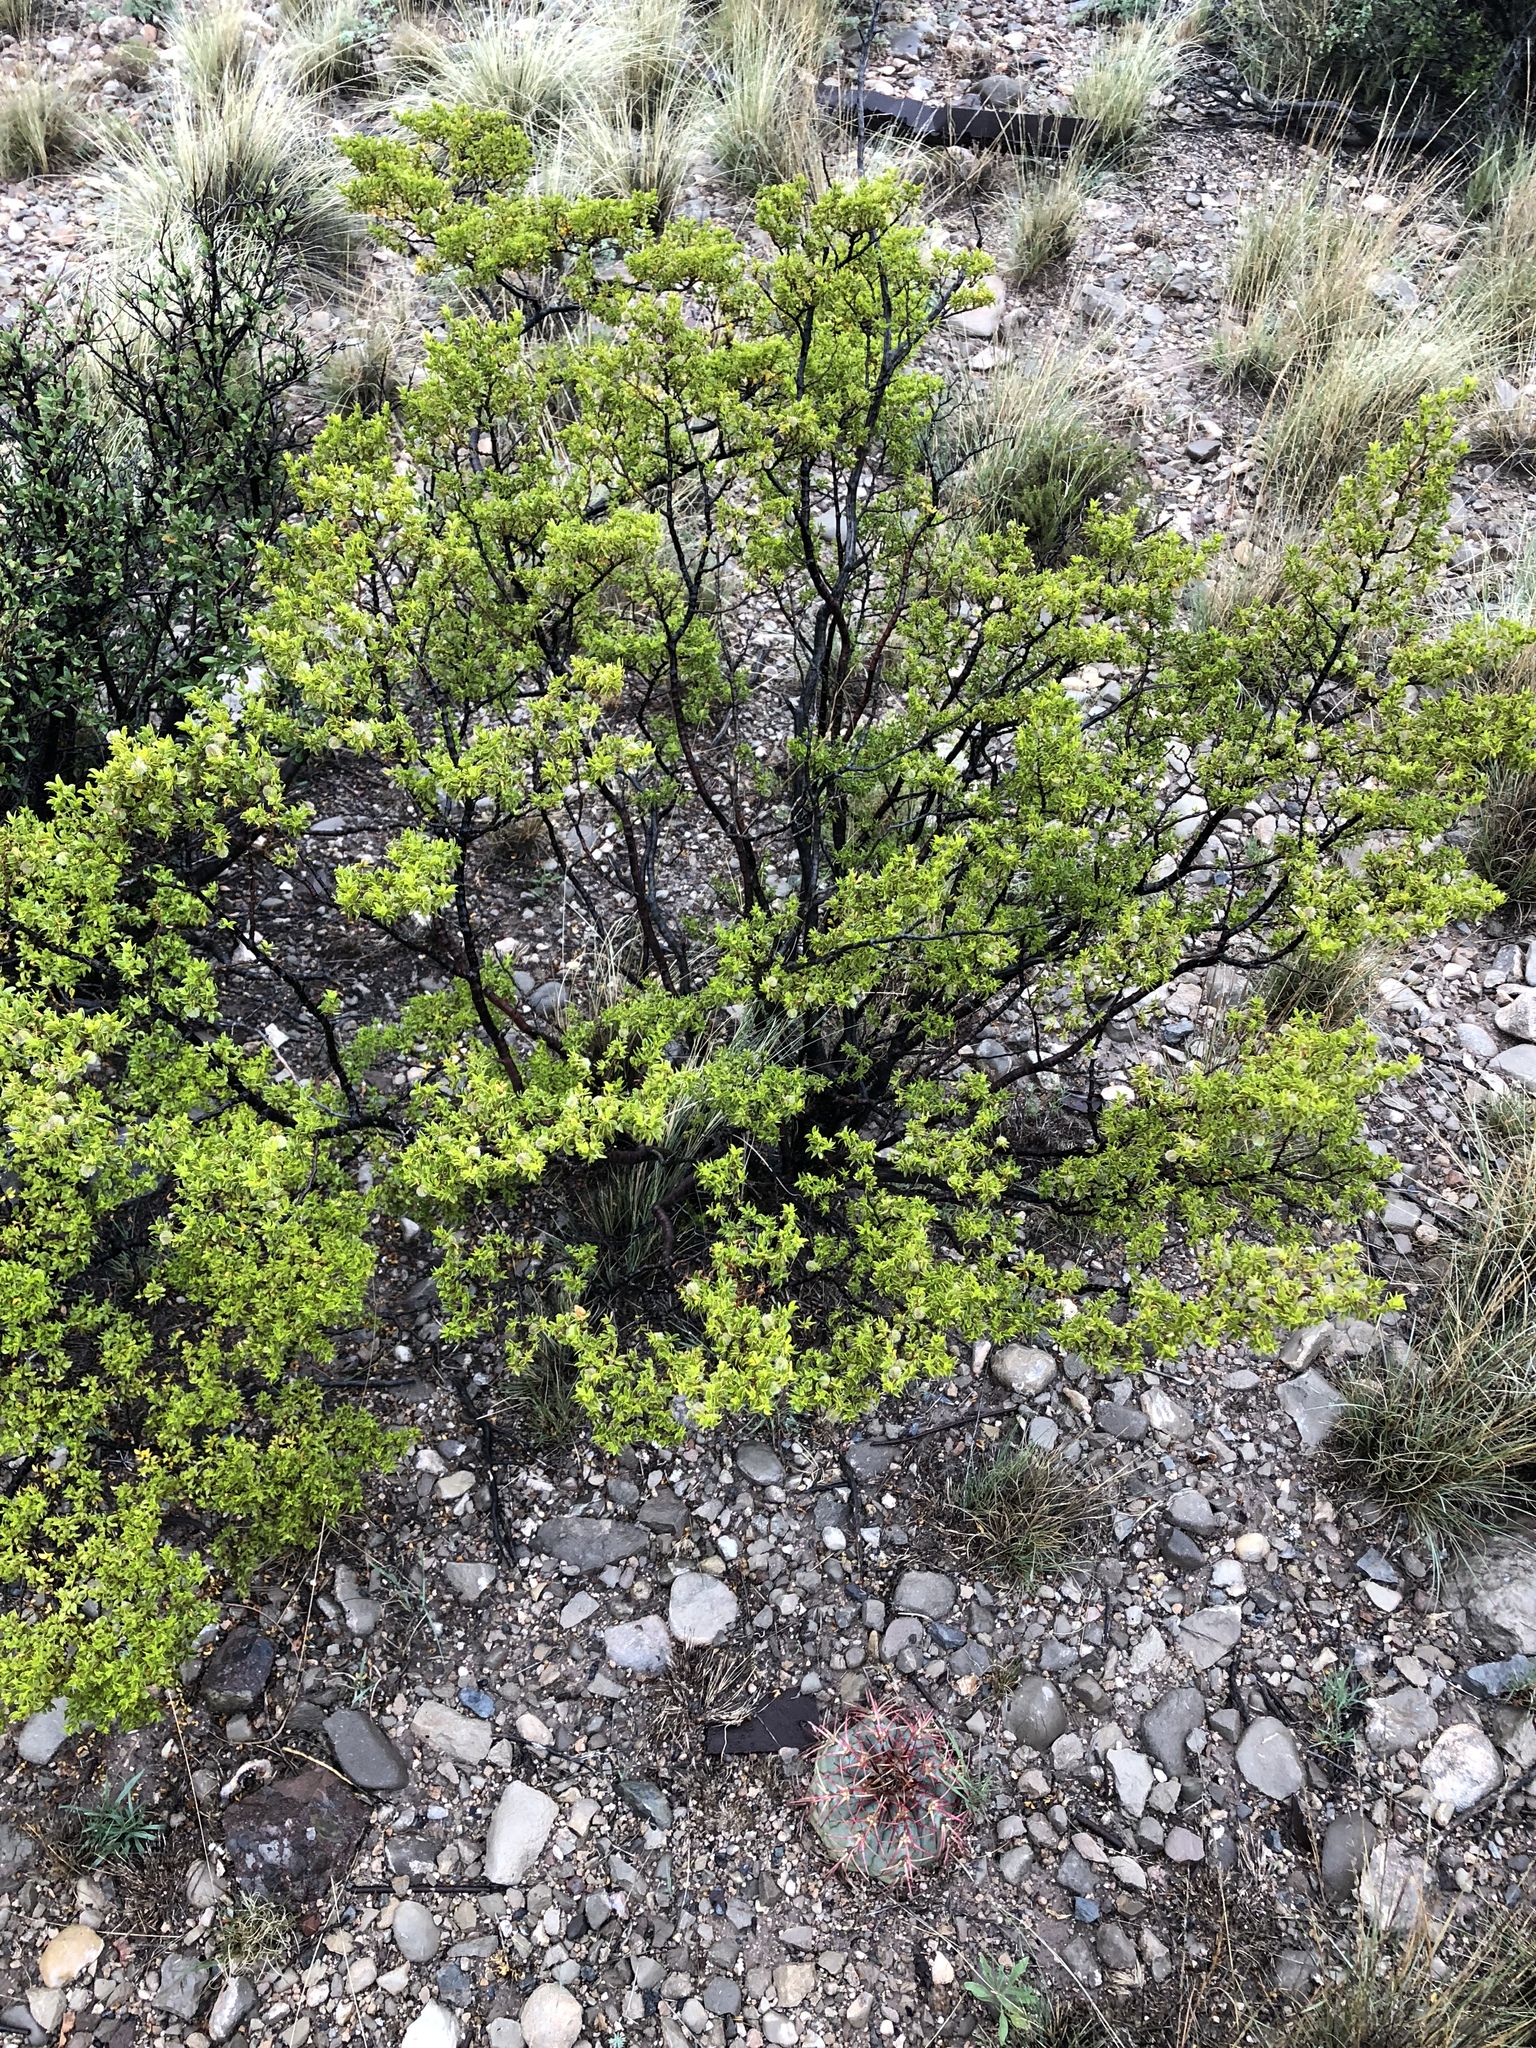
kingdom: Plantae
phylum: Tracheophyta
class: Magnoliopsida
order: Zygophyllales
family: Zygophyllaceae
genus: Larrea
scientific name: Larrea tridentata
